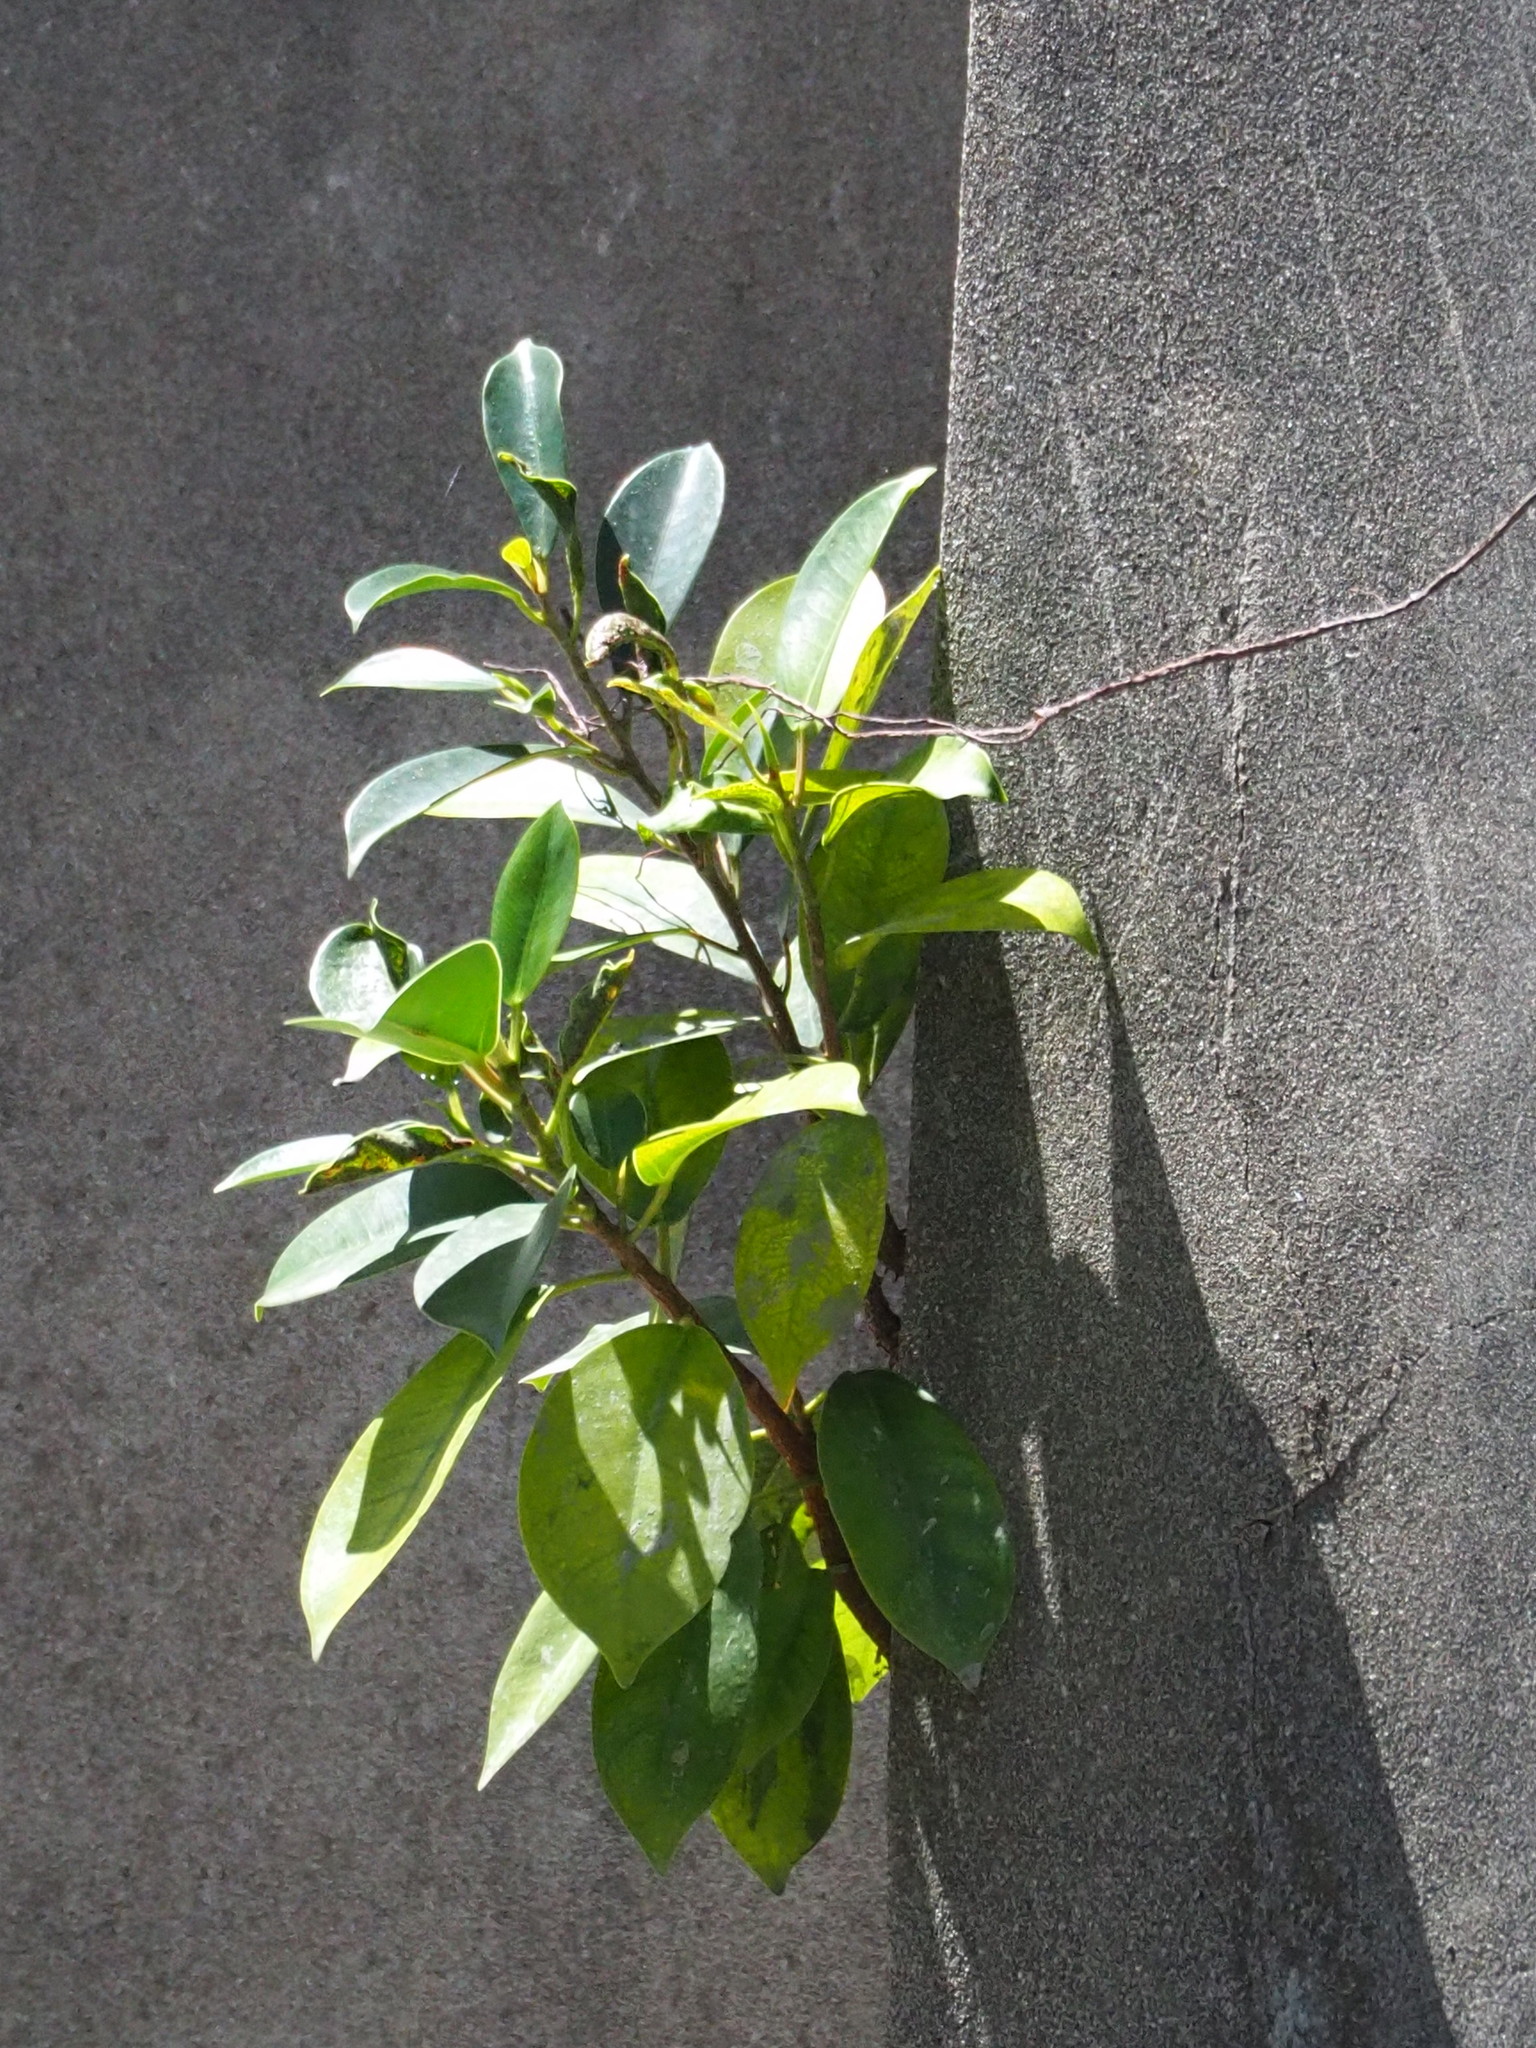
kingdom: Plantae
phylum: Tracheophyta
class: Magnoliopsida
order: Rosales
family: Moraceae
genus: Ficus
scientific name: Ficus microcarpa
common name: Chinese banyan
